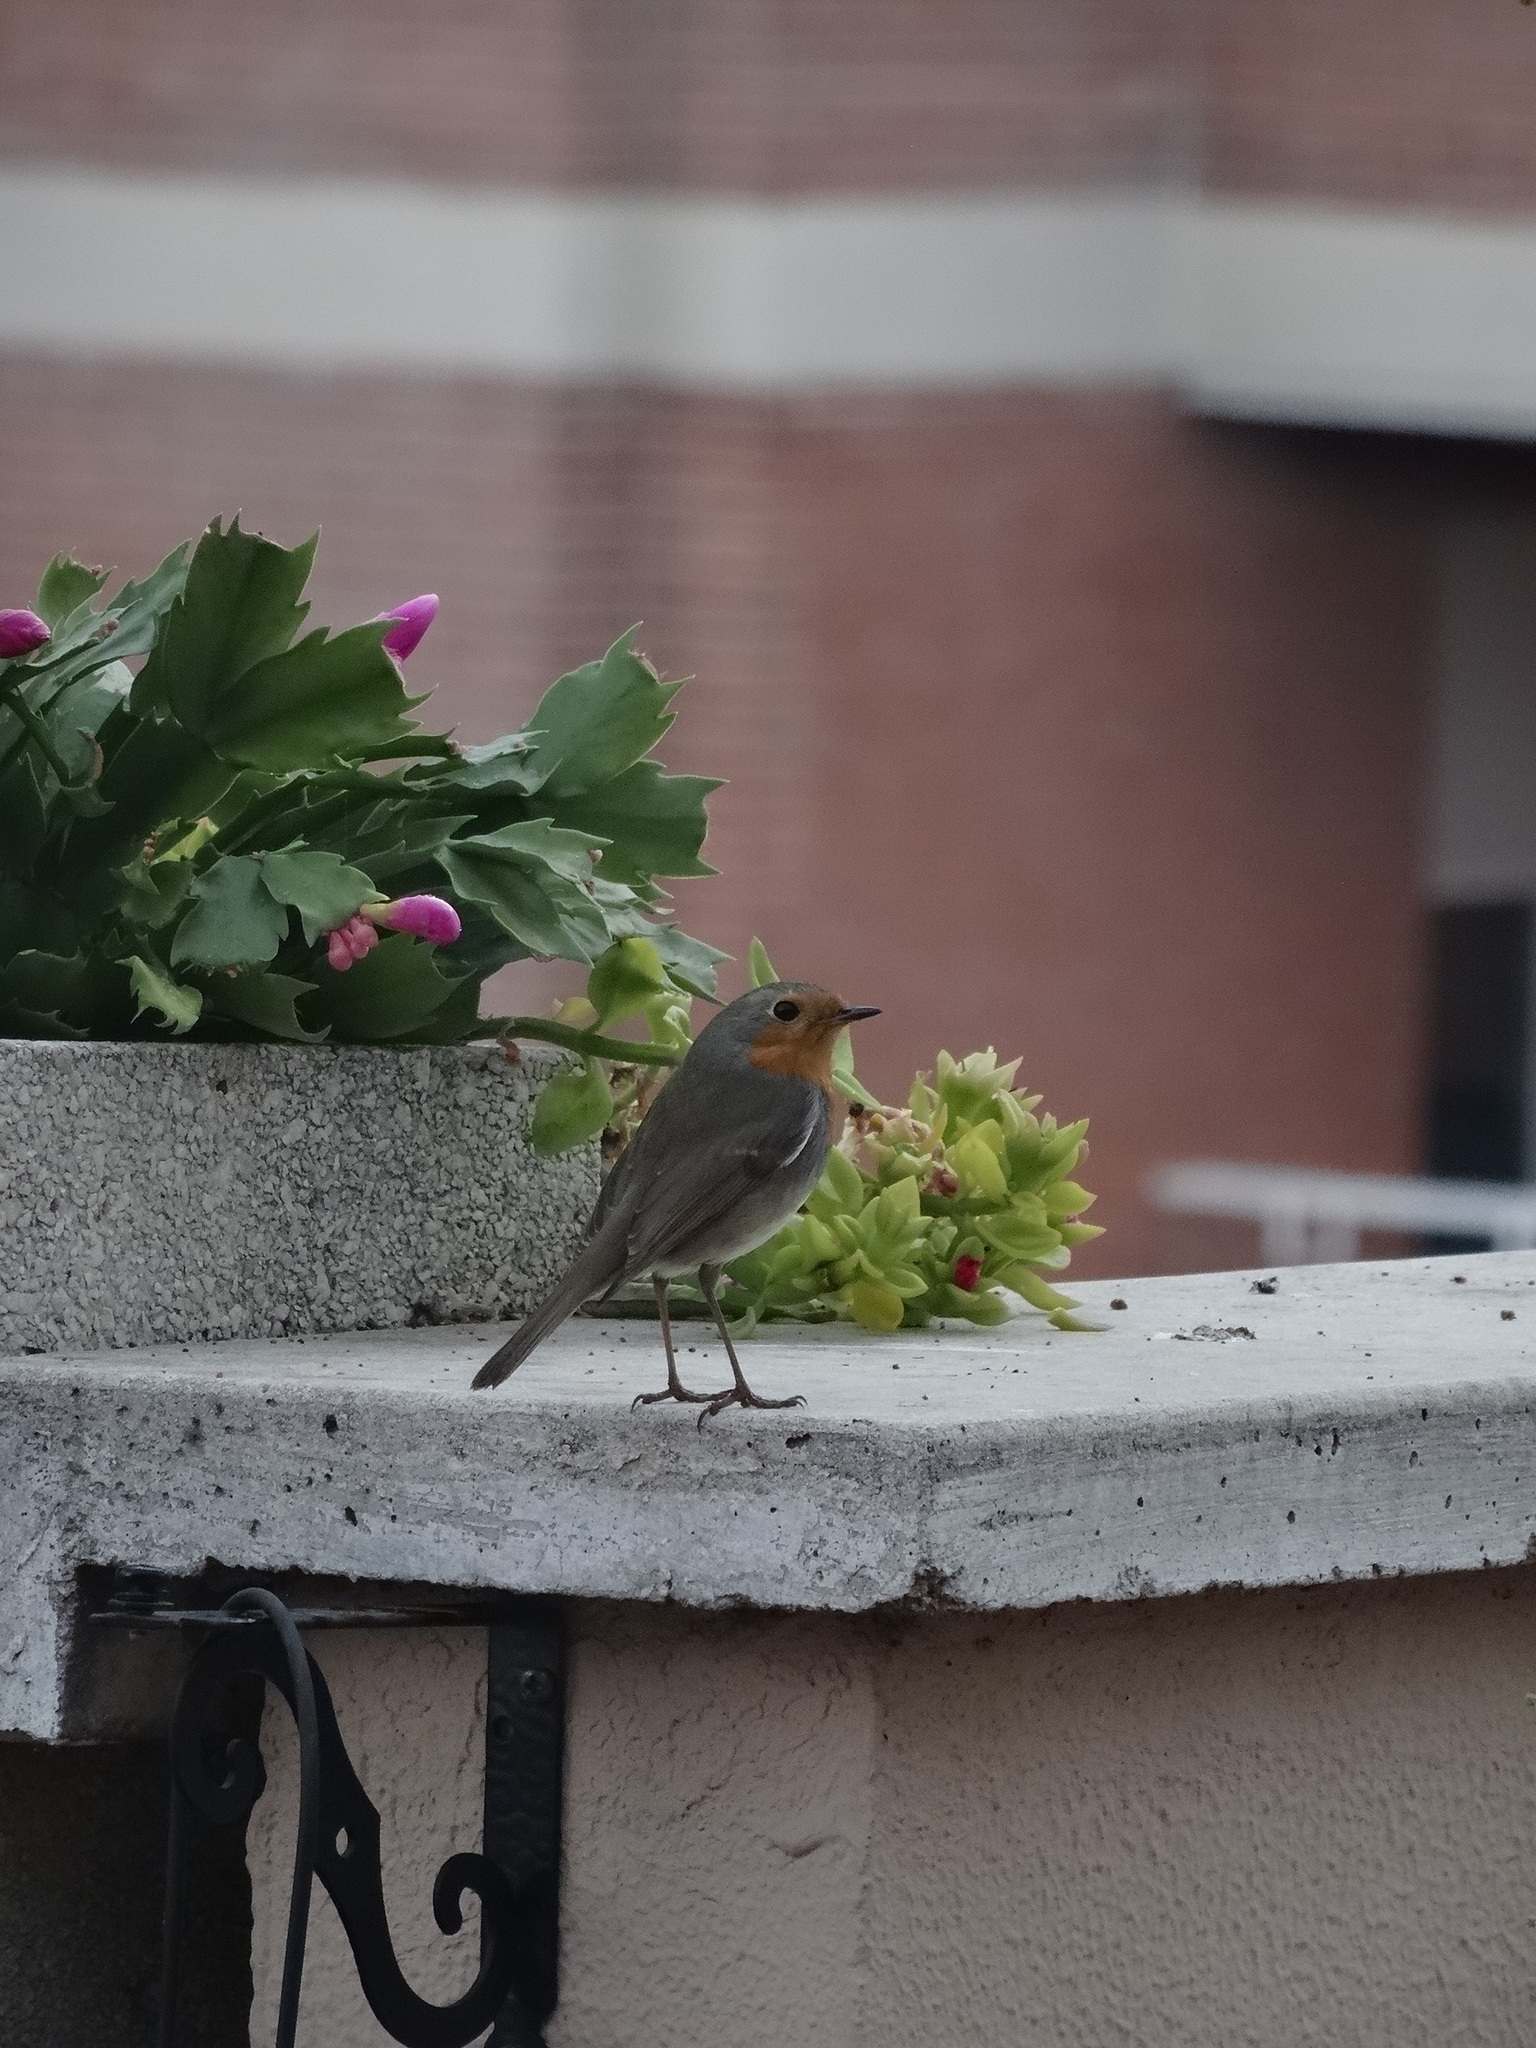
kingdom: Animalia
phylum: Chordata
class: Aves
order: Passeriformes
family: Muscicapidae
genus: Erithacus
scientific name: Erithacus rubecula
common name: European robin
